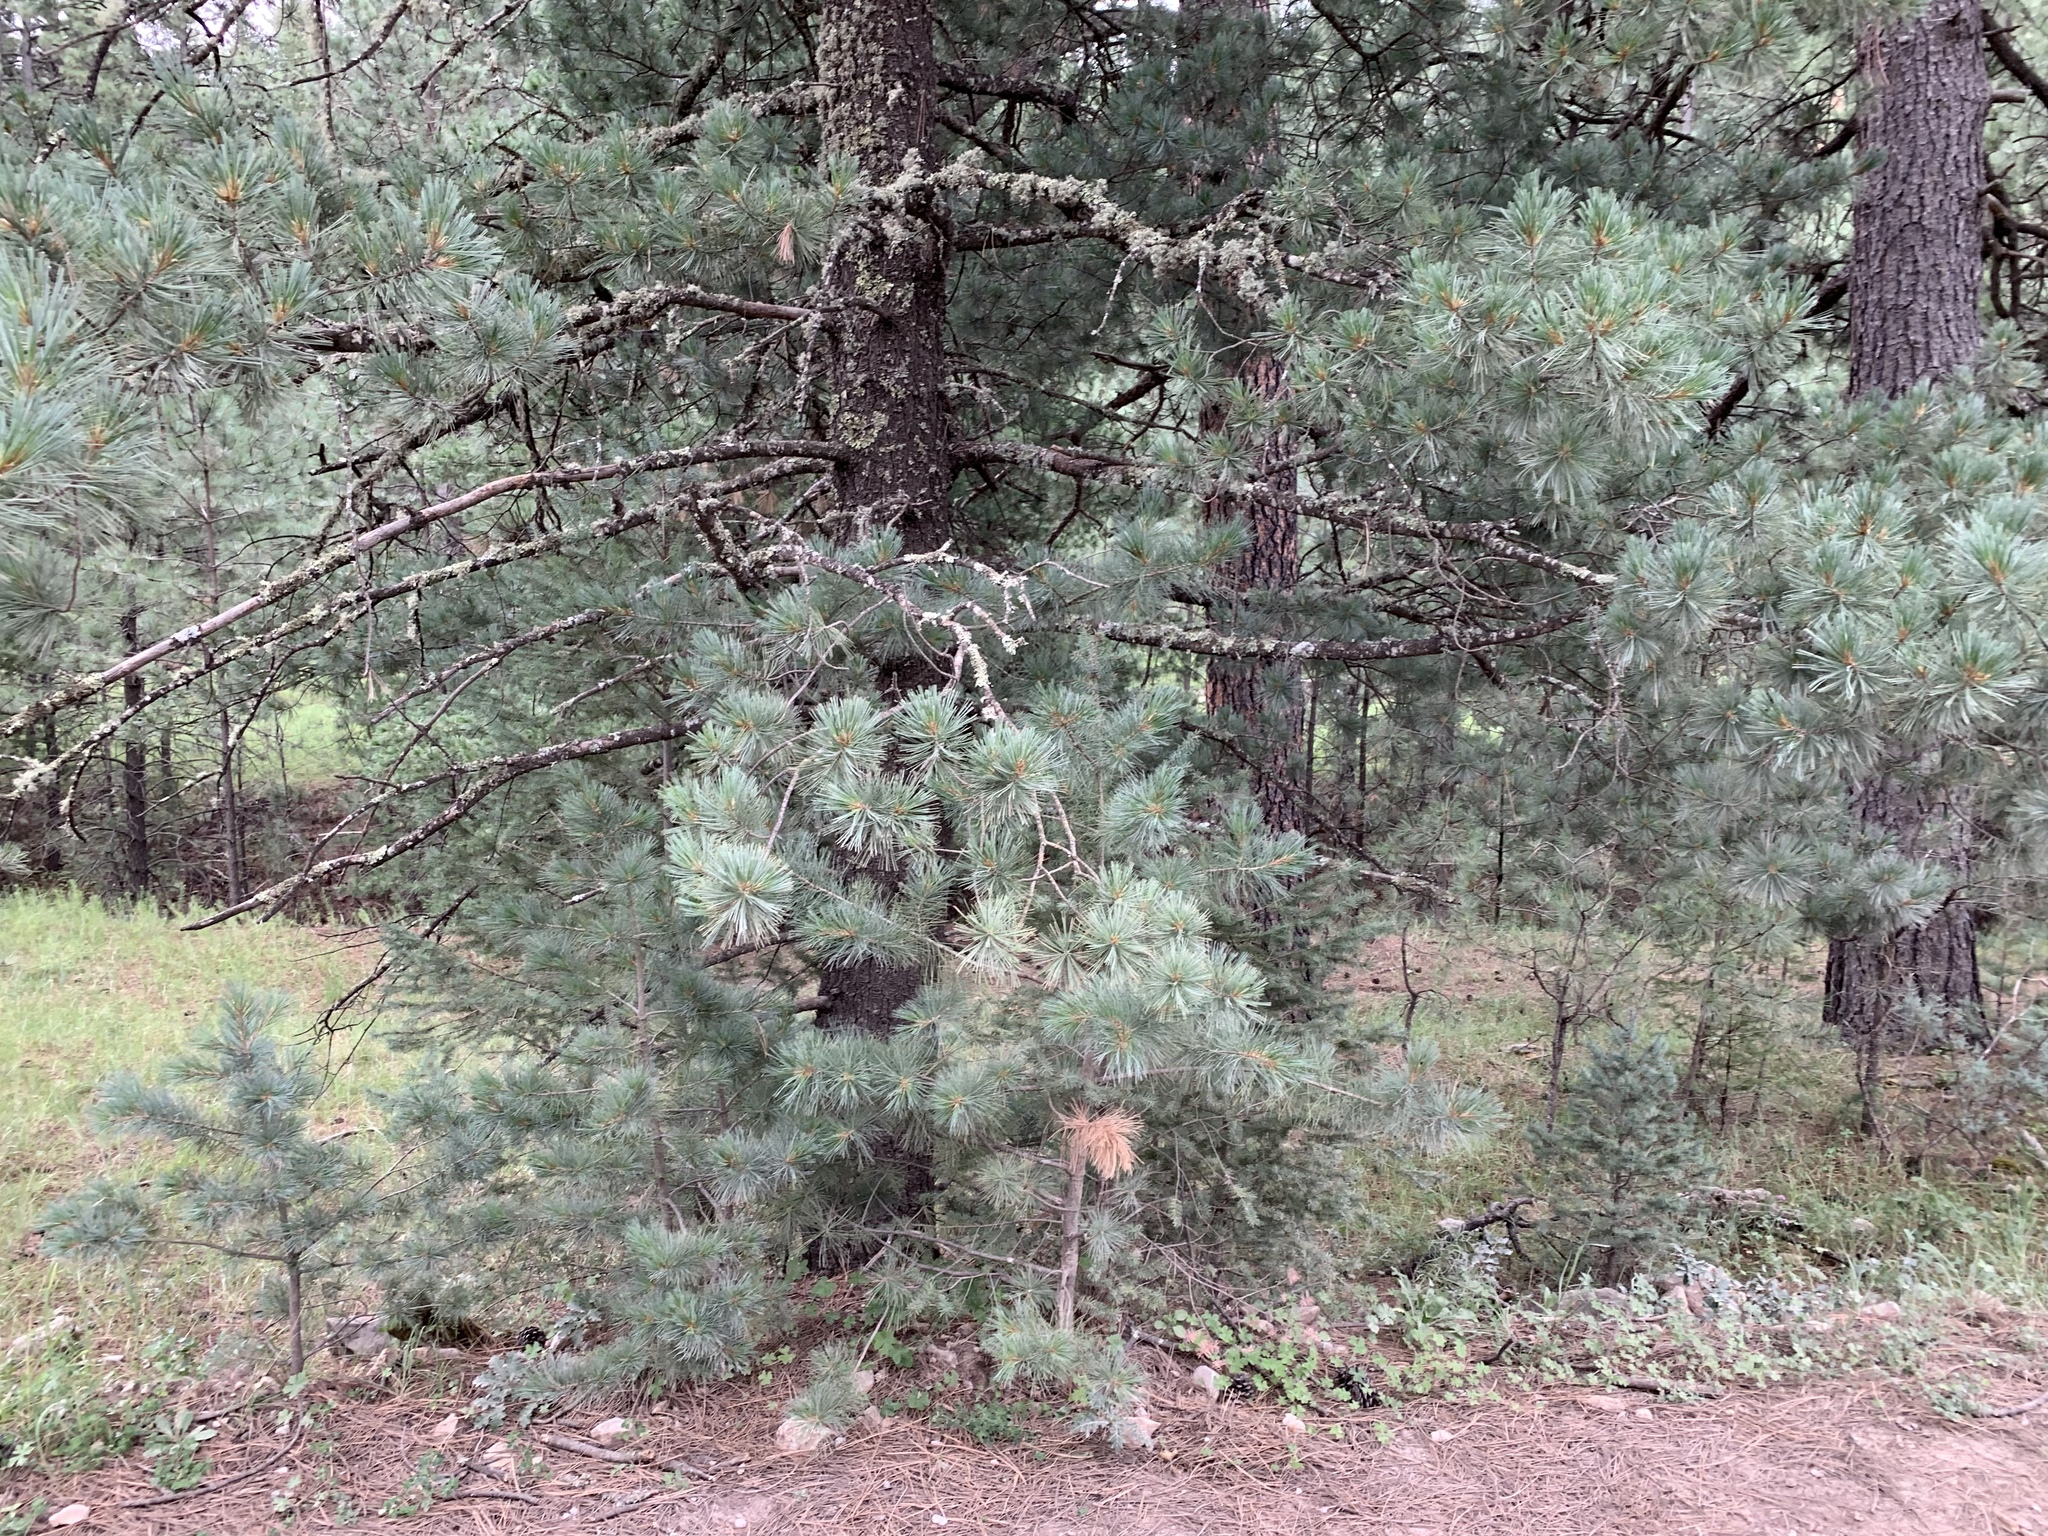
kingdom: Plantae
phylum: Tracheophyta
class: Pinopsida
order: Pinales
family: Pinaceae
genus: Pinus
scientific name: Pinus ponderosa
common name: Western yellow-pine
